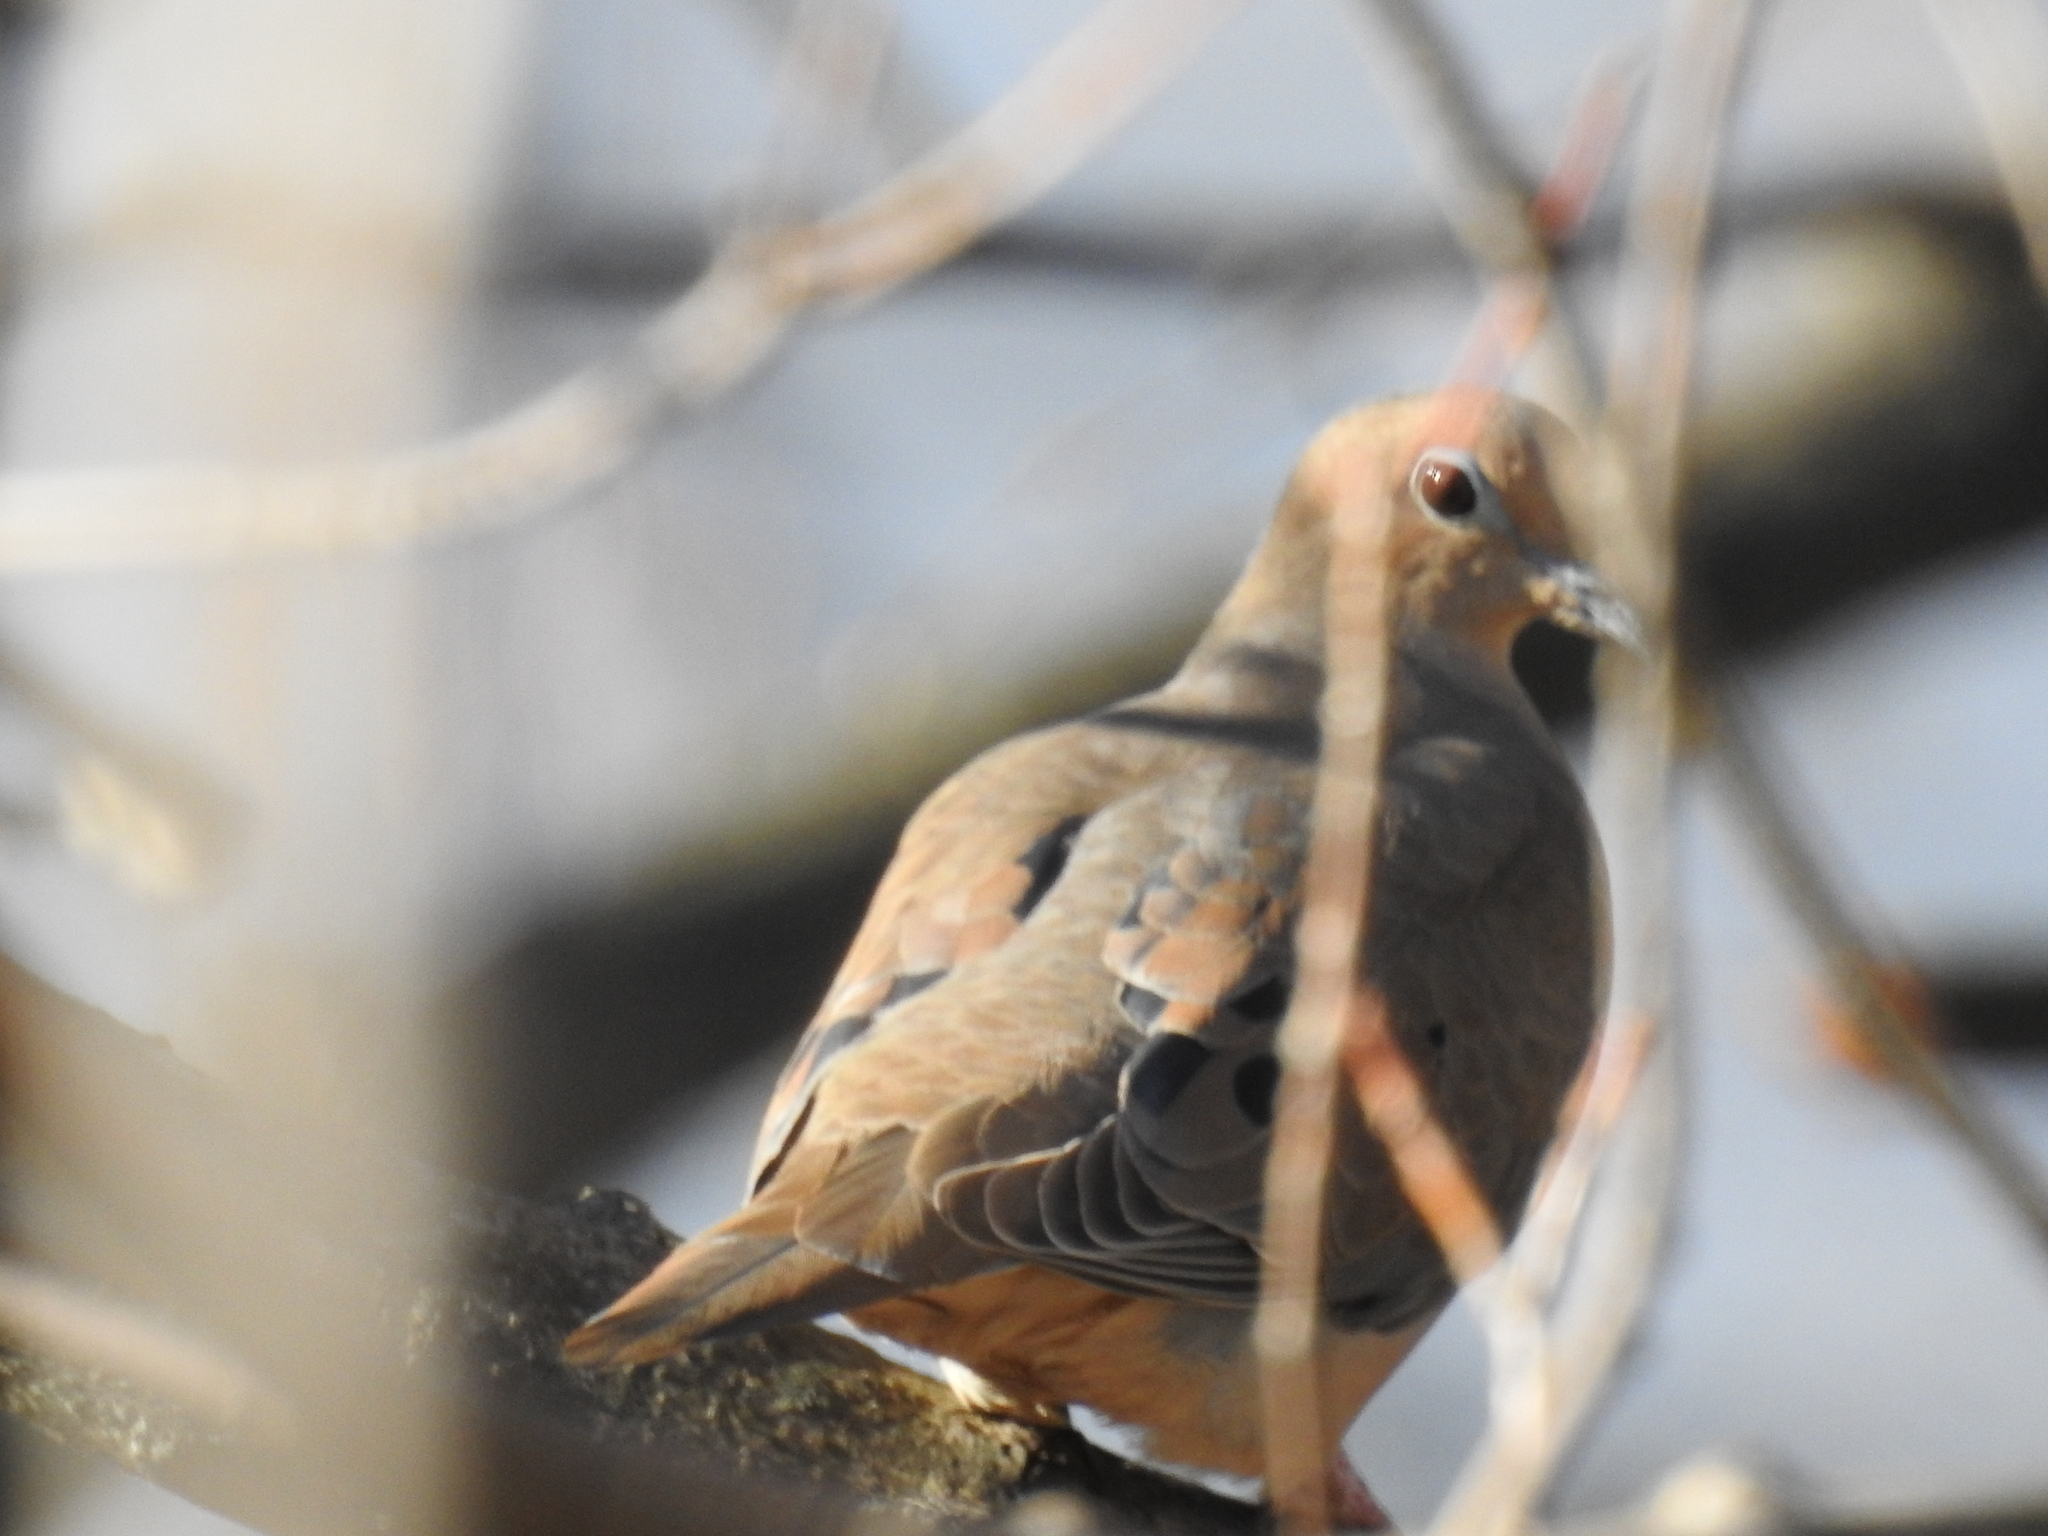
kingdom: Animalia
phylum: Chordata
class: Aves
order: Columbiformes
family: Columbidae
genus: Zenaida
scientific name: Zenaida macroura
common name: Mourning dove
